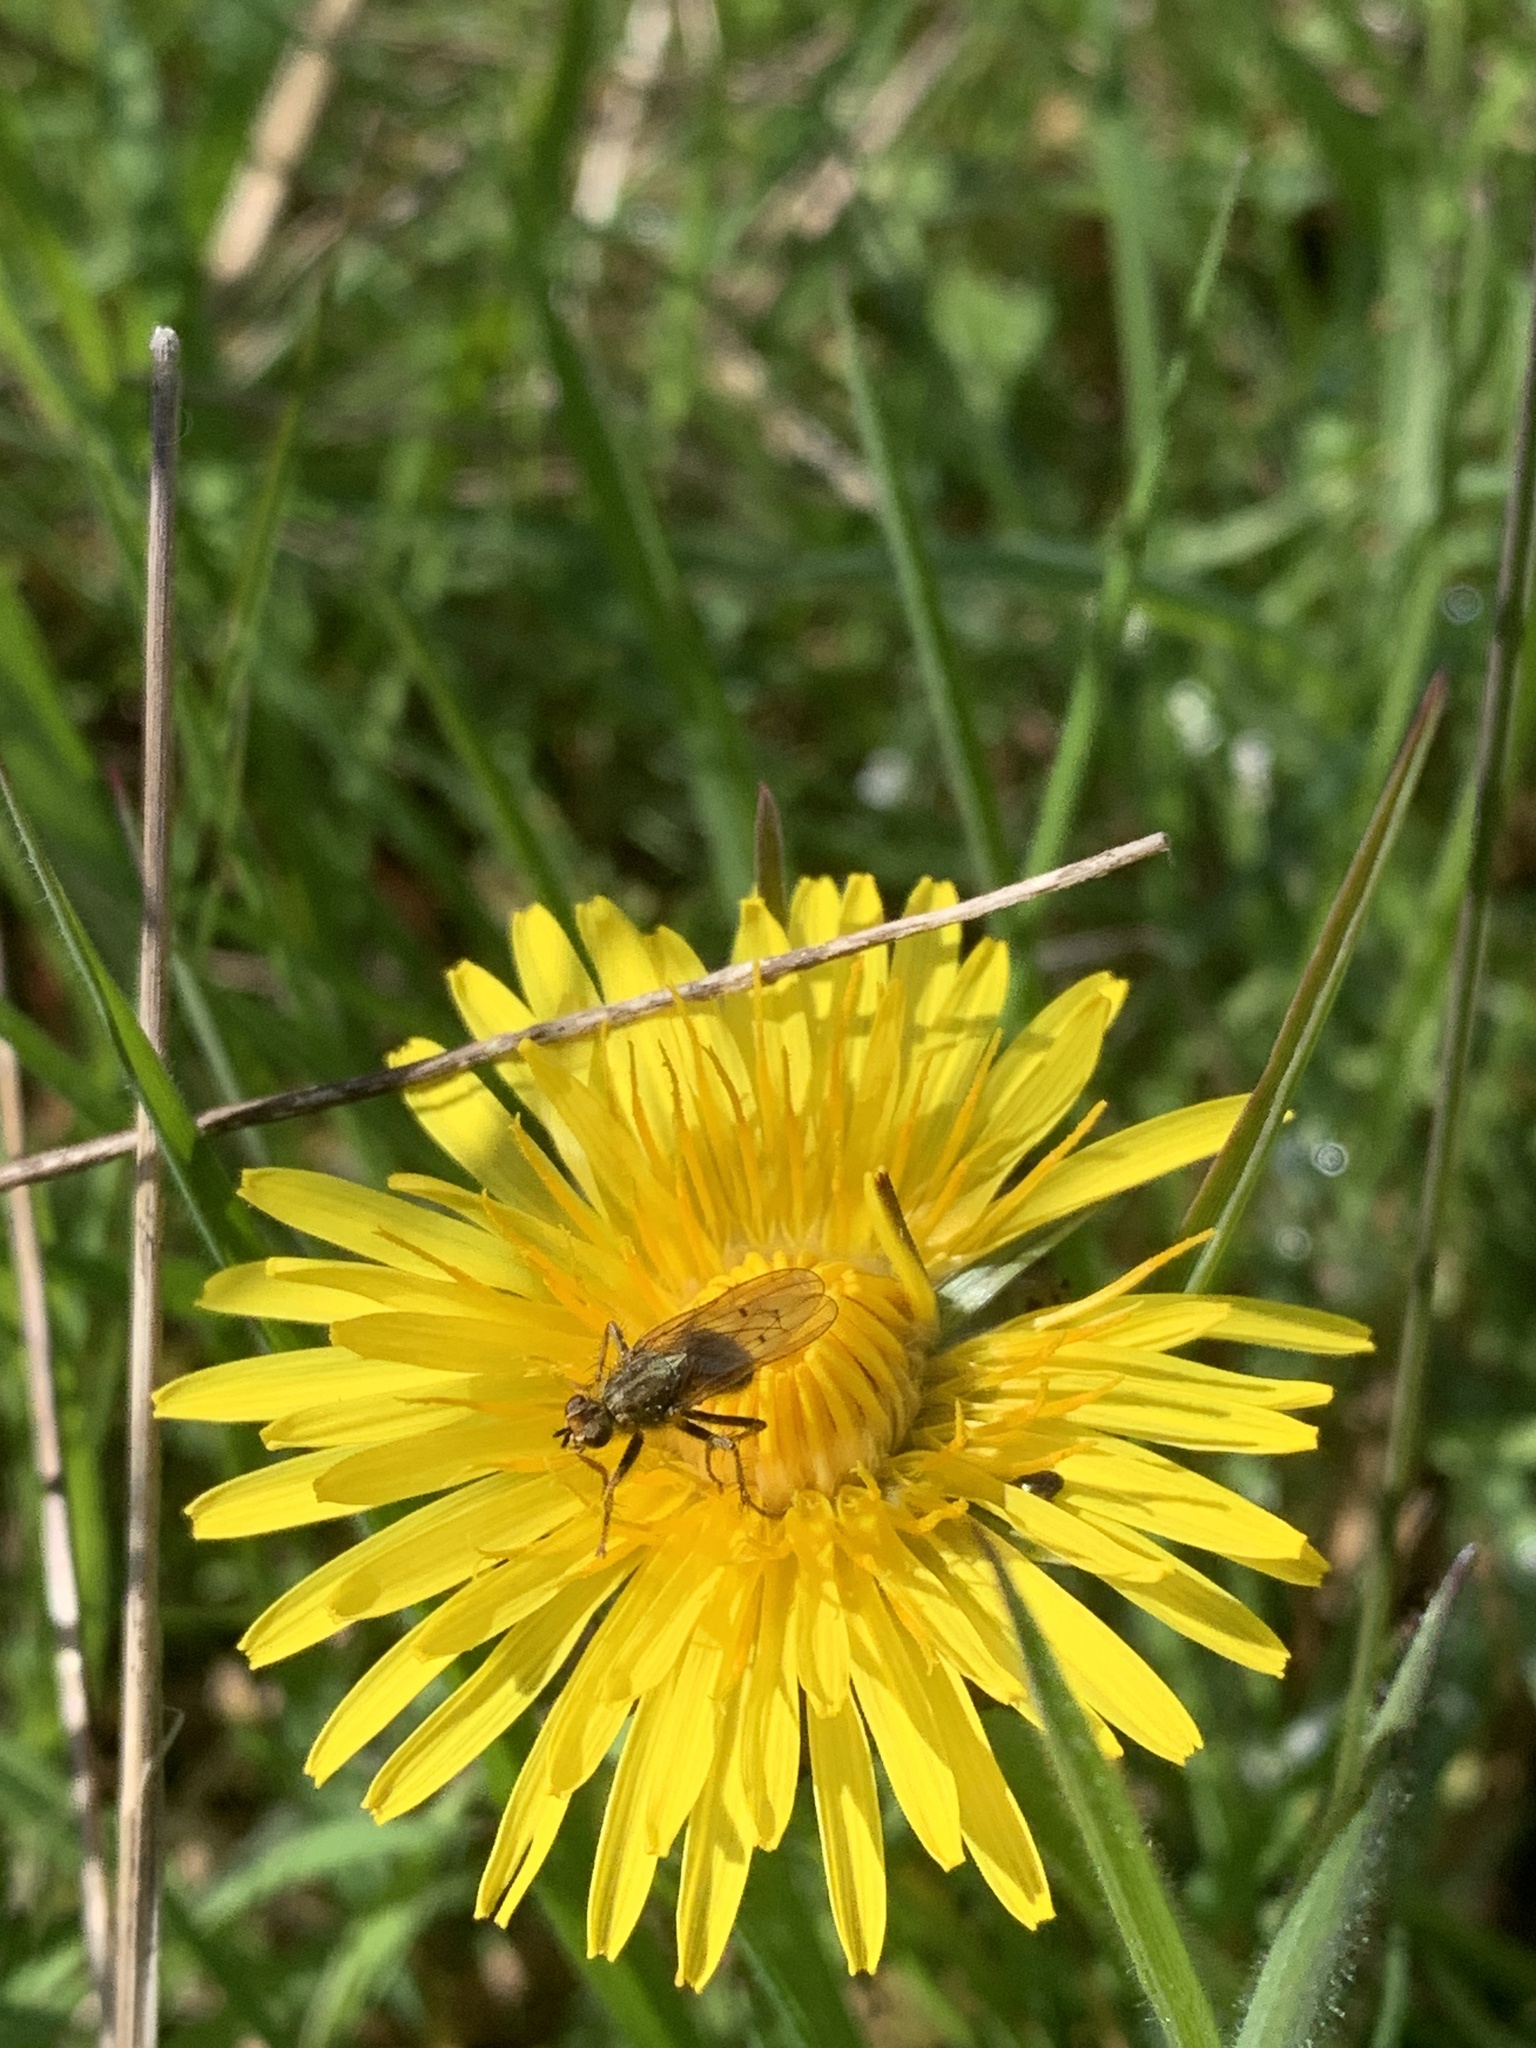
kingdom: Animalia
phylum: Arthropoda
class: Insecta
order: Diptera
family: Scathophagidae
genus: Scathophaga
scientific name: Scathophaga stercoraria
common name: Yellow dung fly
